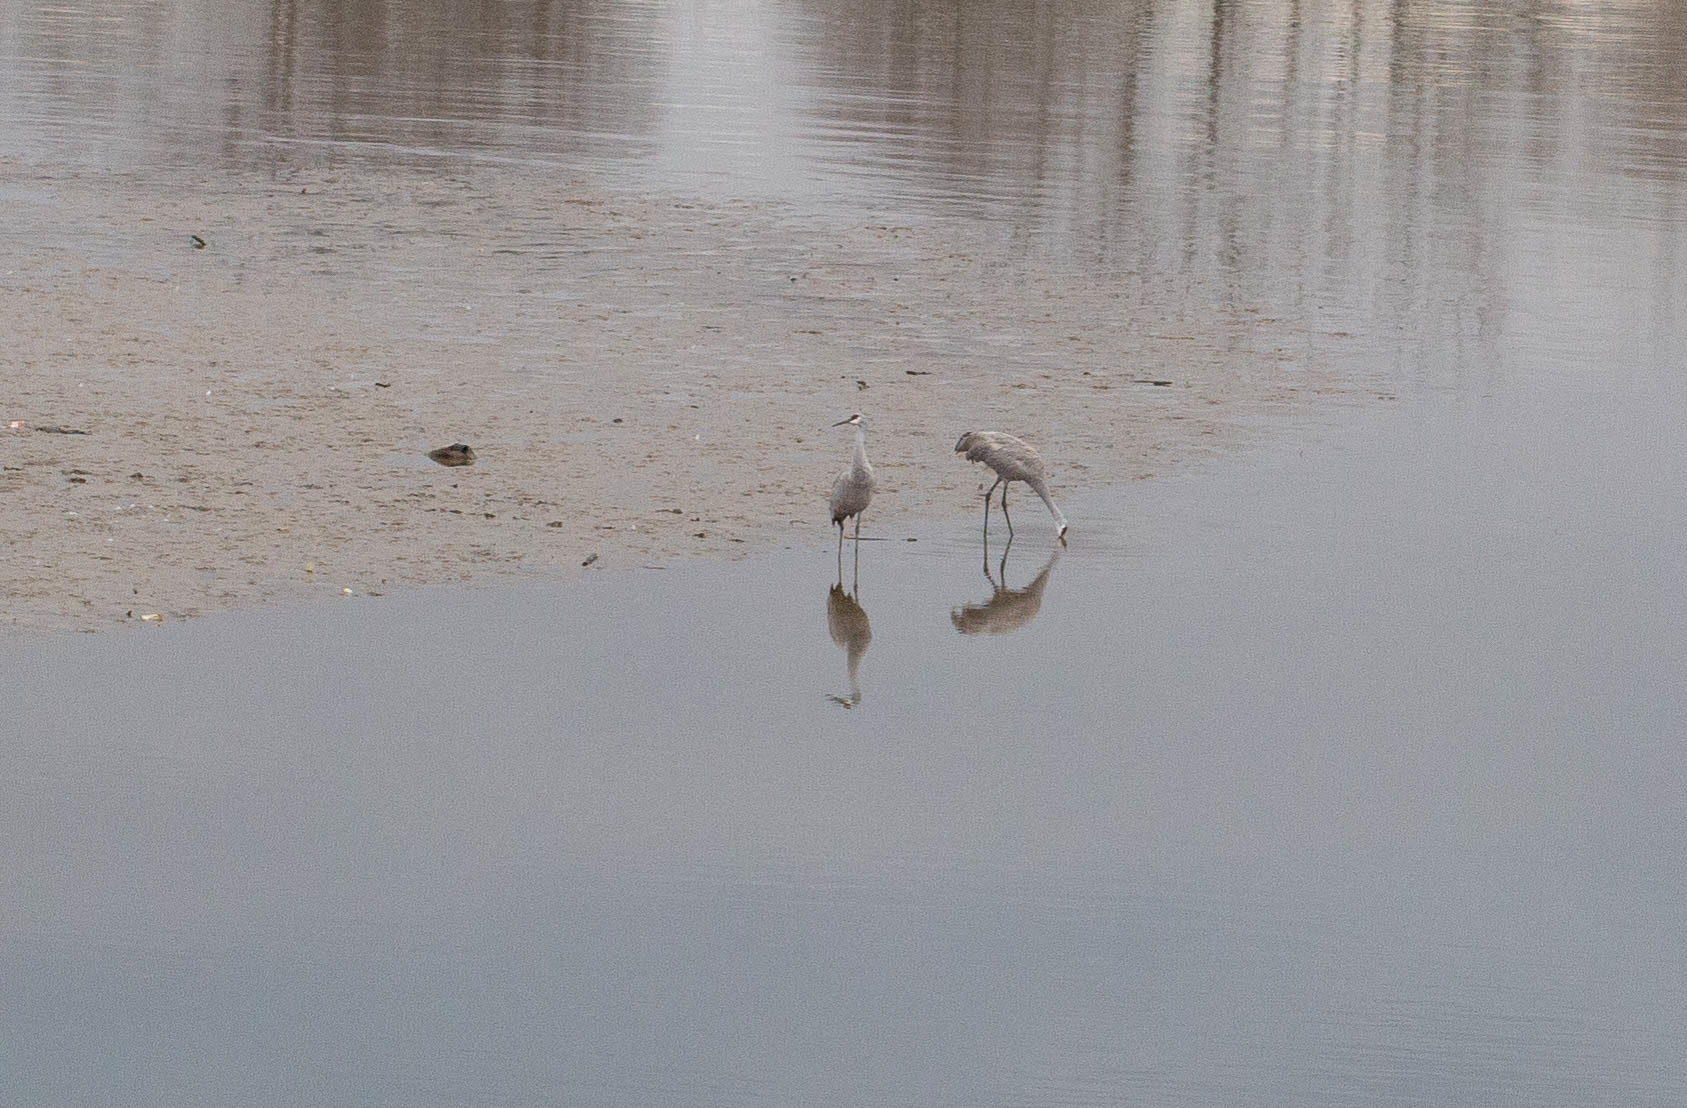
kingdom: Animalia
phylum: Chordata
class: Aves
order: Gruiformes
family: Gruidae
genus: Grus
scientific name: Grus canadensis
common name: Sandhill crane
